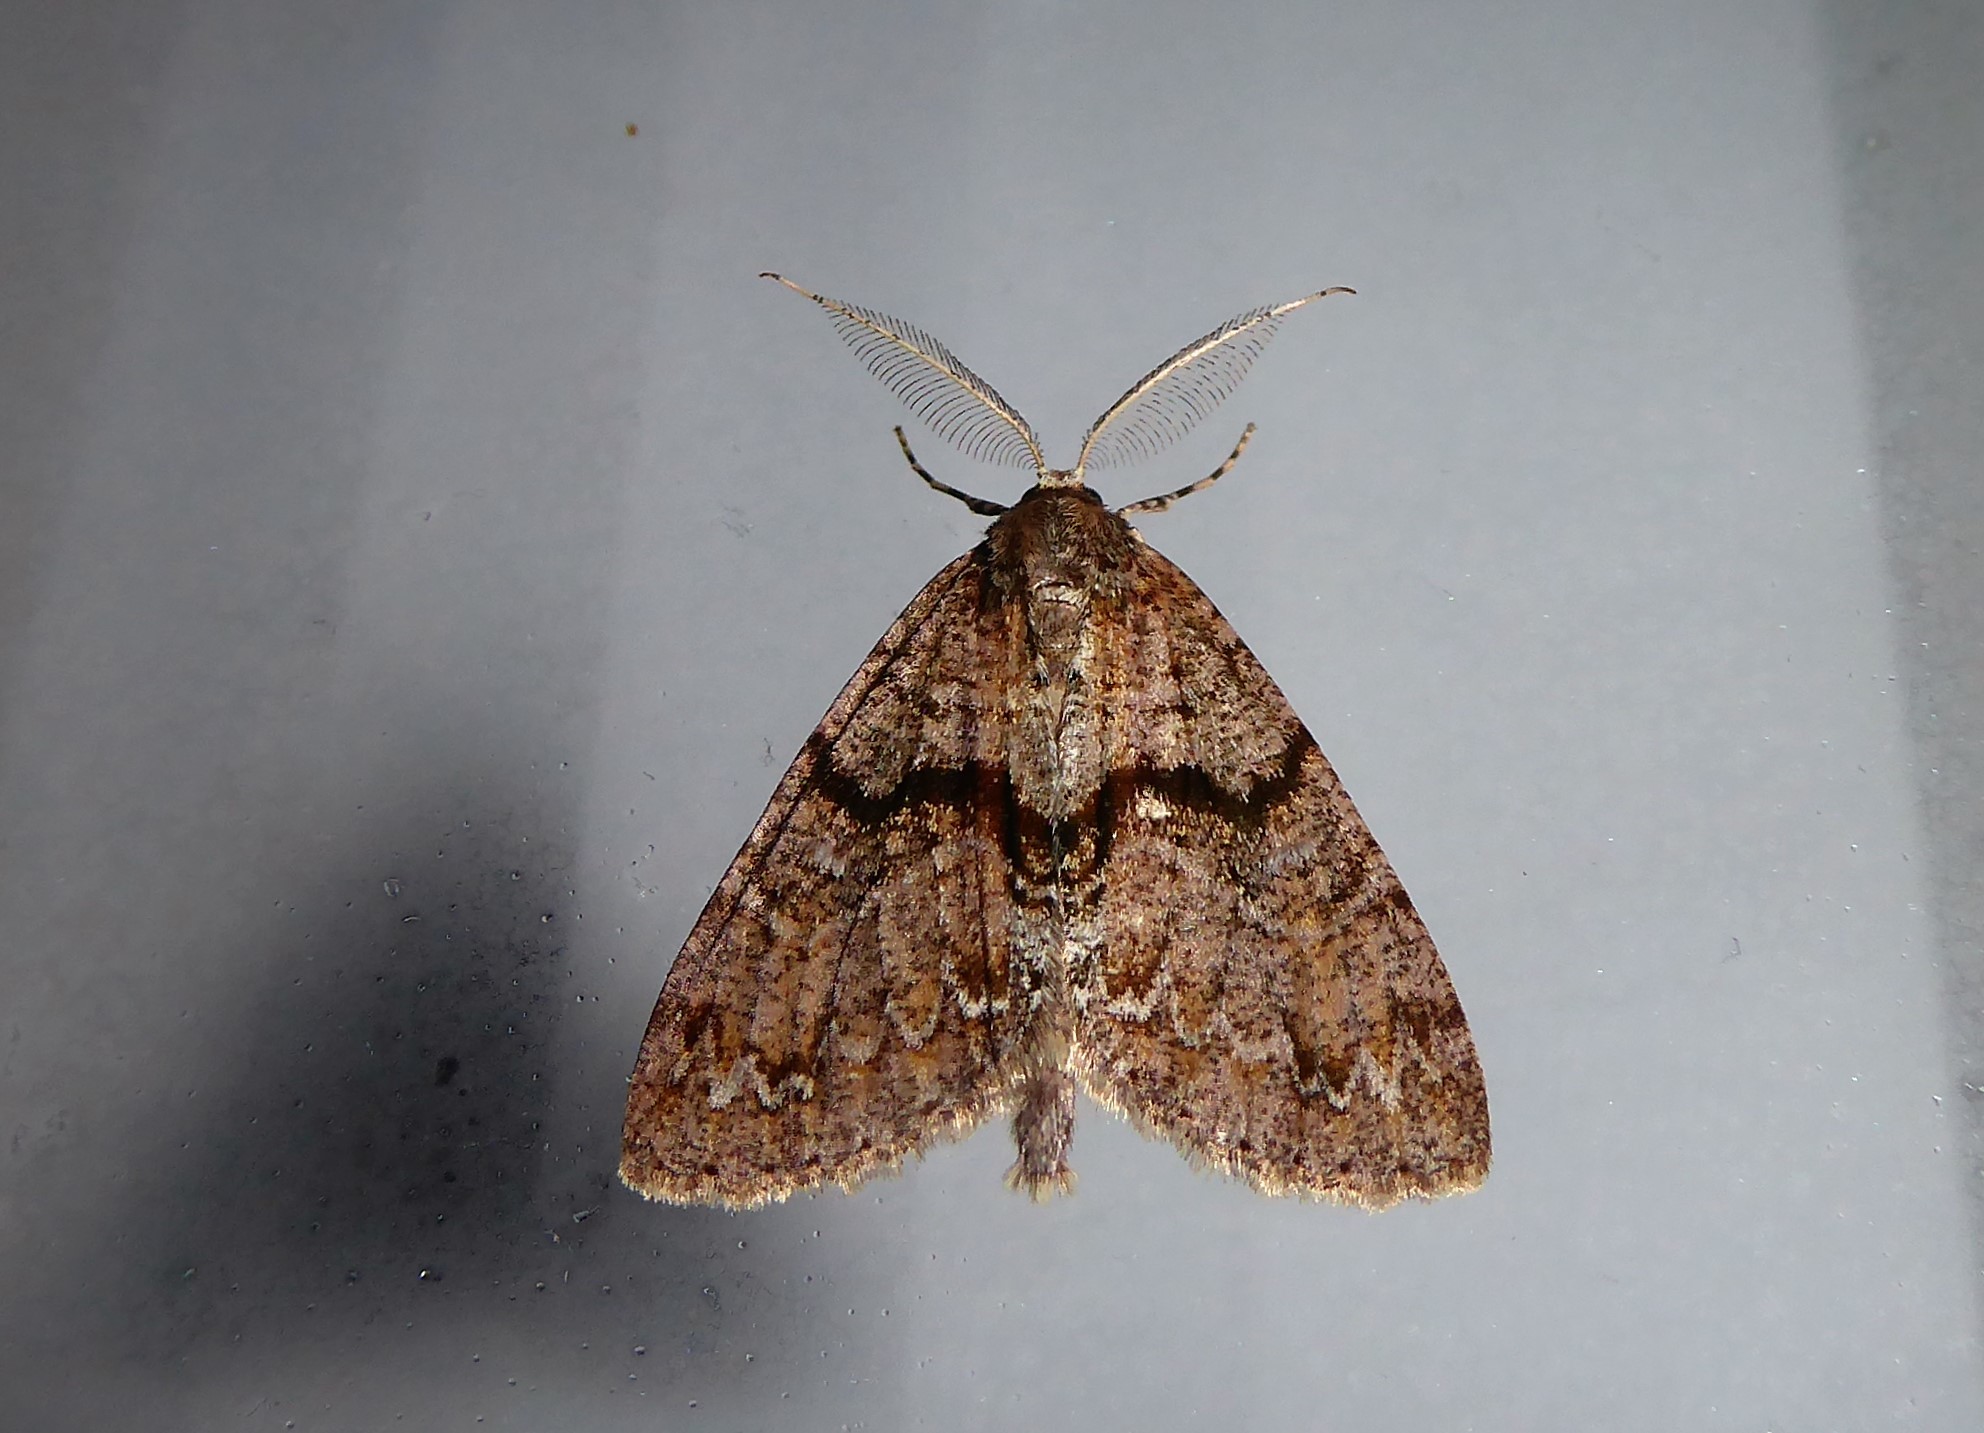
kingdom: Animalia
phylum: Arthropoda
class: Insecta
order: Lepidoptera
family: Geometridae
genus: Pseudocoremia
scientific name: Pseudocoremia suavis
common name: Common forest looper
